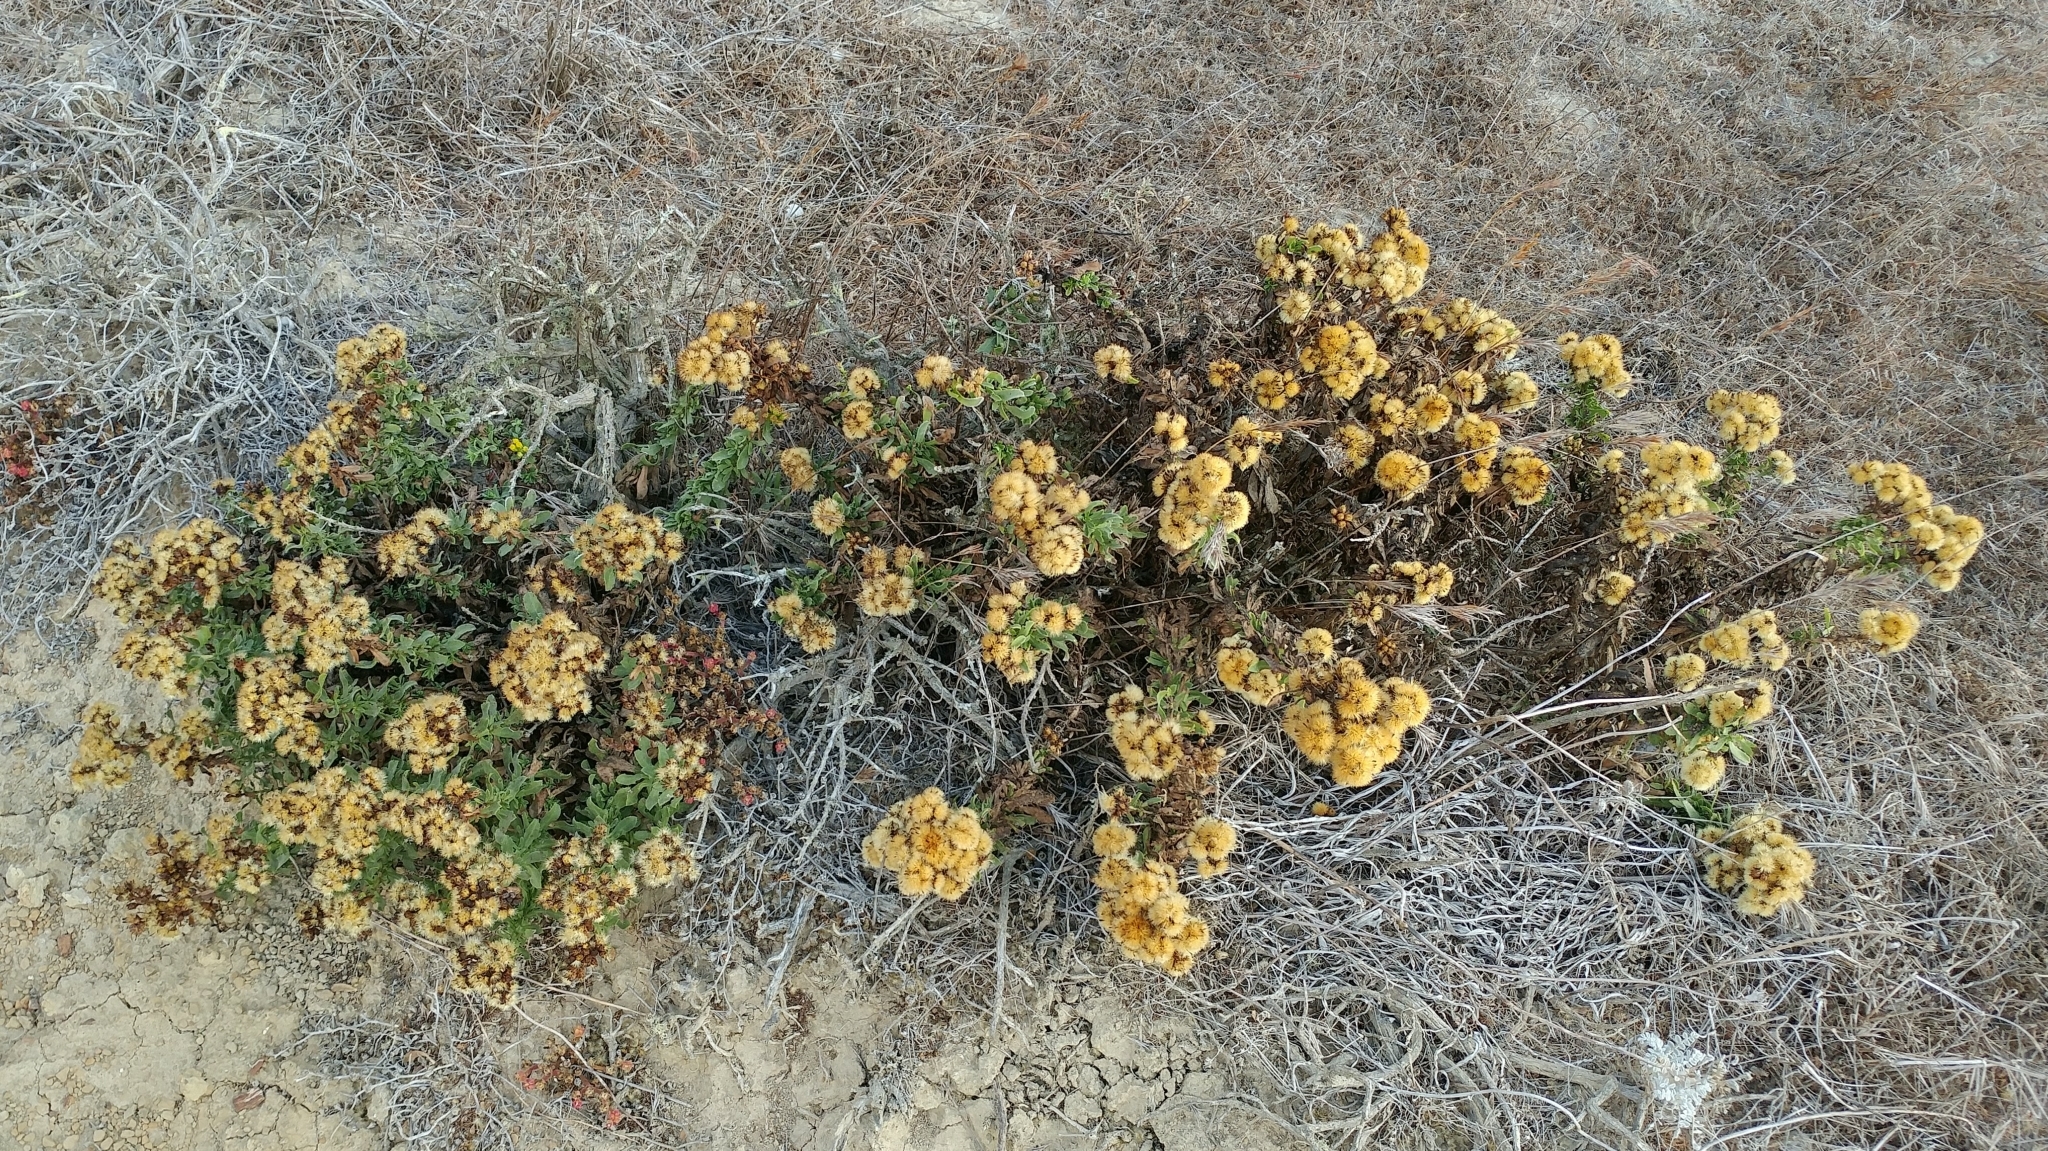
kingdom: Plantae
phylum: Tracheophyta
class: Magnoliopsida
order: Asterales
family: Asteraceae
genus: Isocoma
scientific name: Isocoma menziesii
